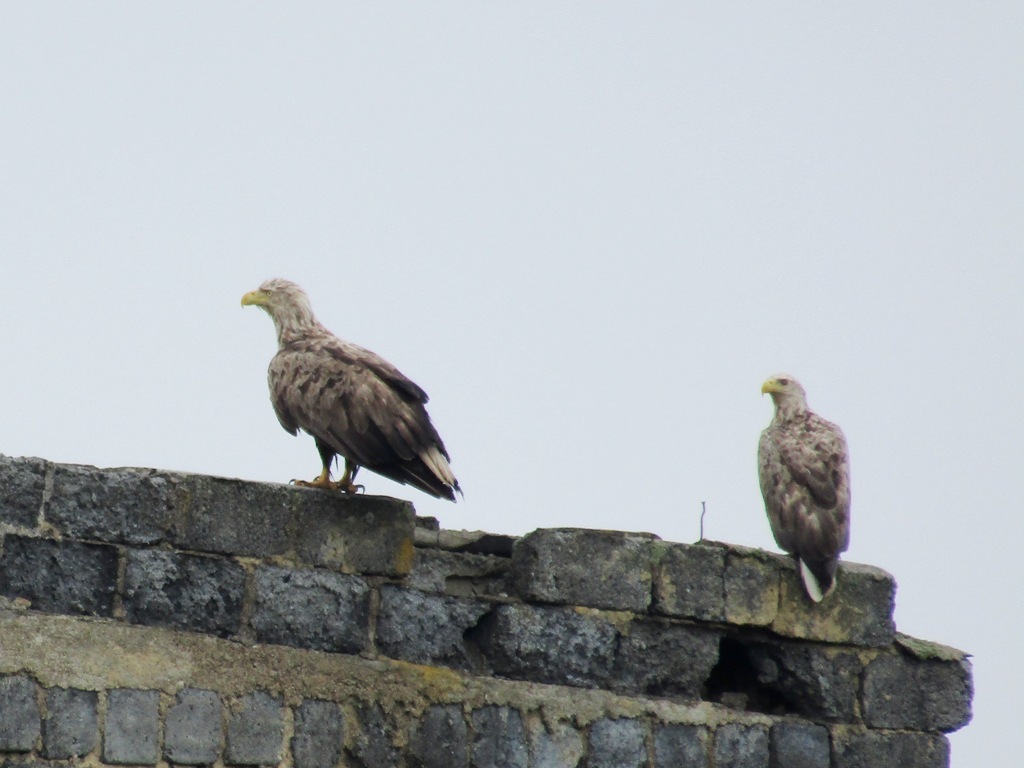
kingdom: Animalia
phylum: Chordata
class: Aves
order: Accipitriformes
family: Accipitridae
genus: Haliaeetus
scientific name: Haliaeetus albicilla
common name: White-tailed eagle
